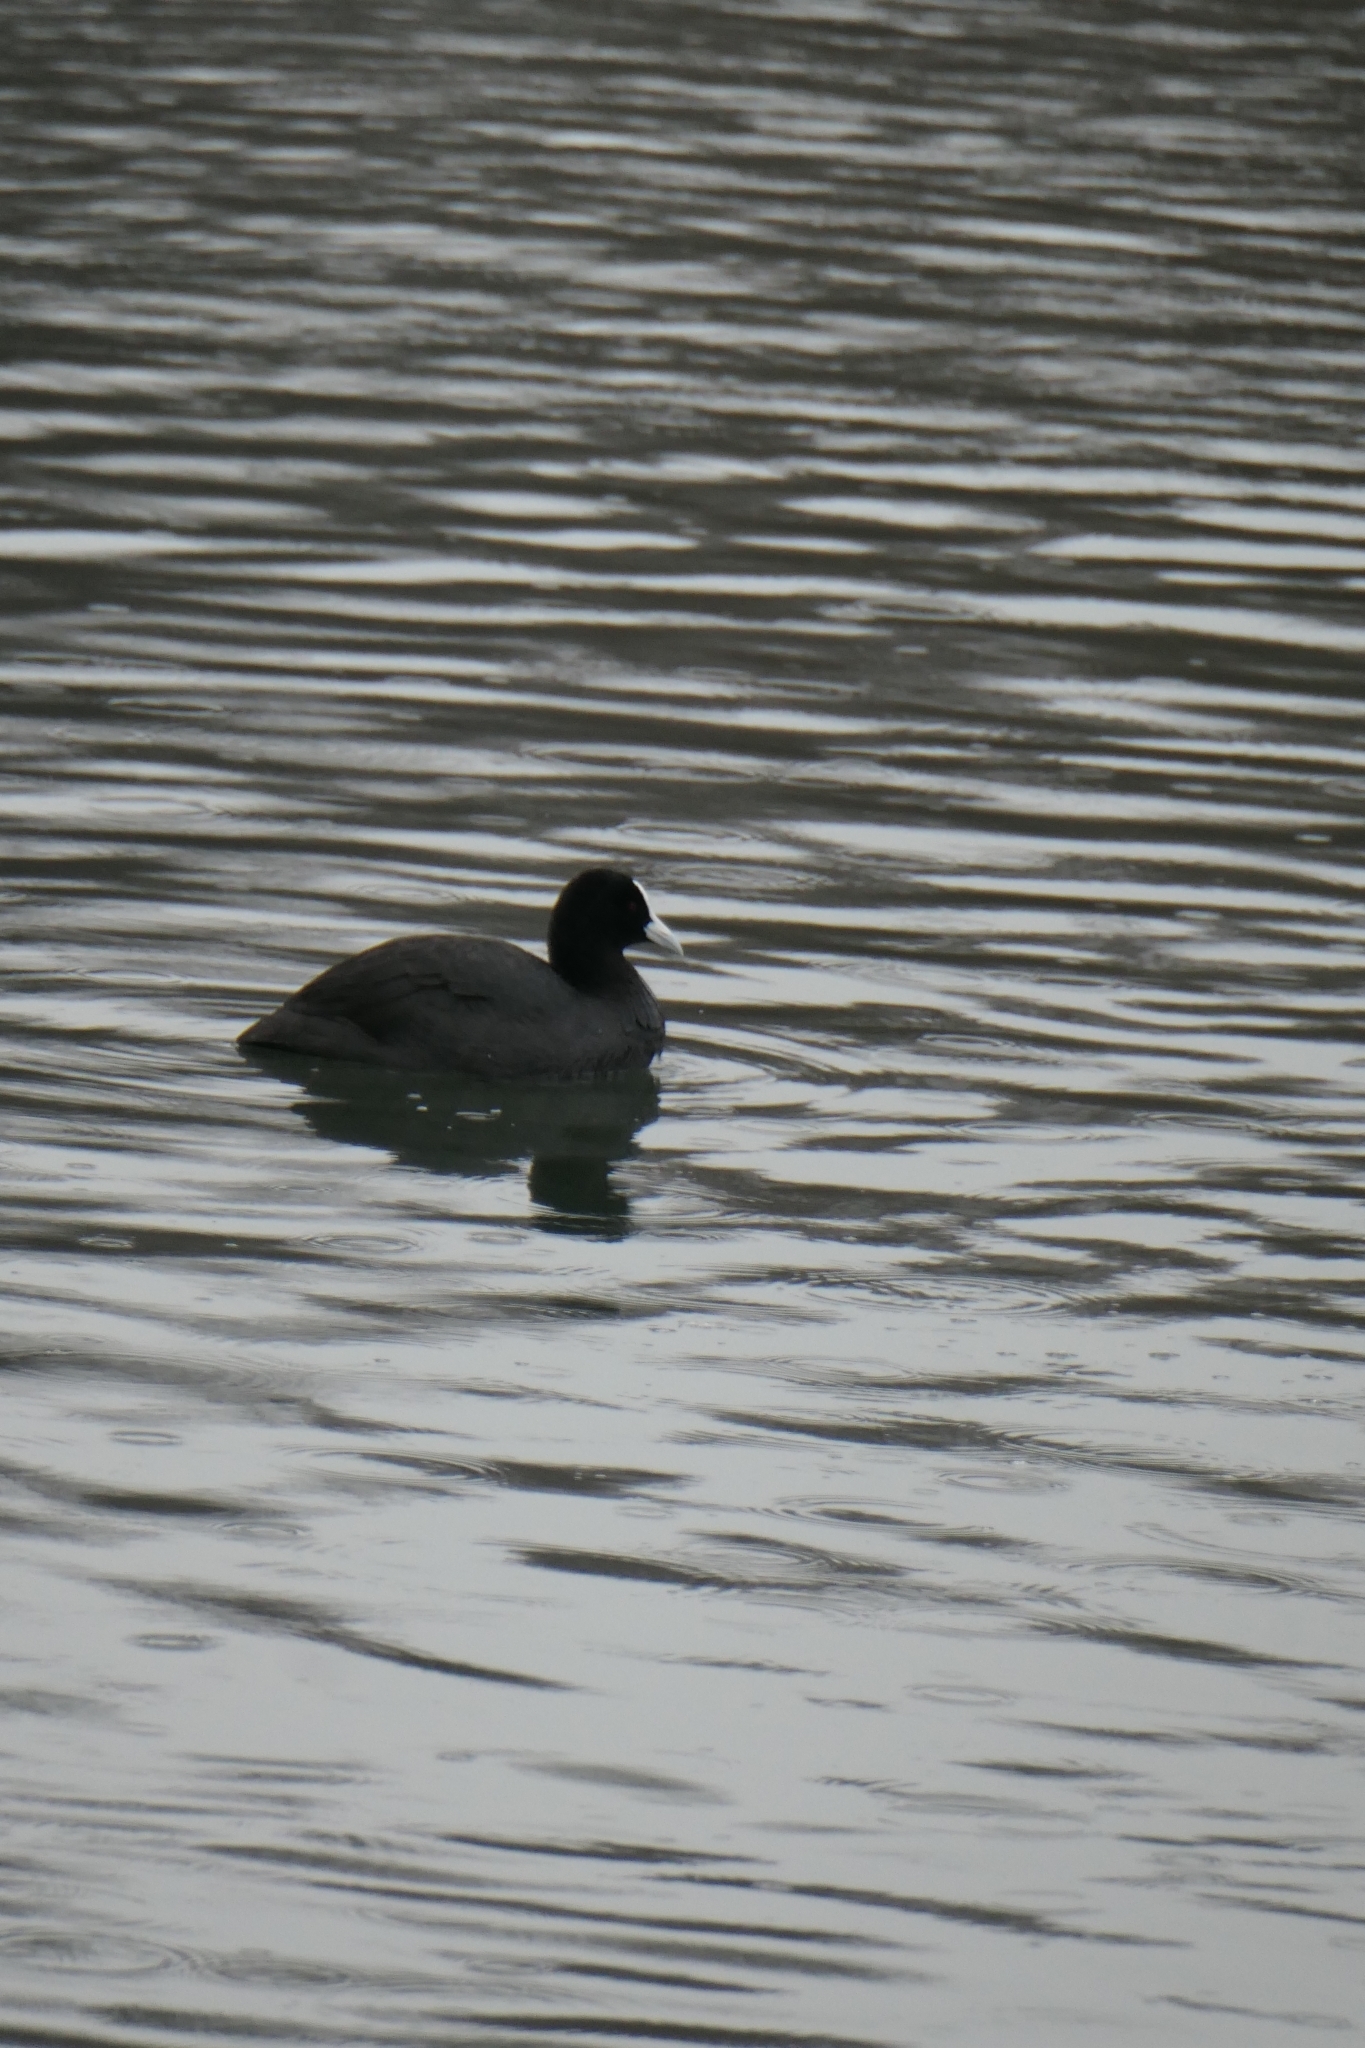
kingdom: Animalia
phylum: Chordata
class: Aves
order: Gruiformes
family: Rallidae
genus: Fulica
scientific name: Fulica atra
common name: Eurasian coot
